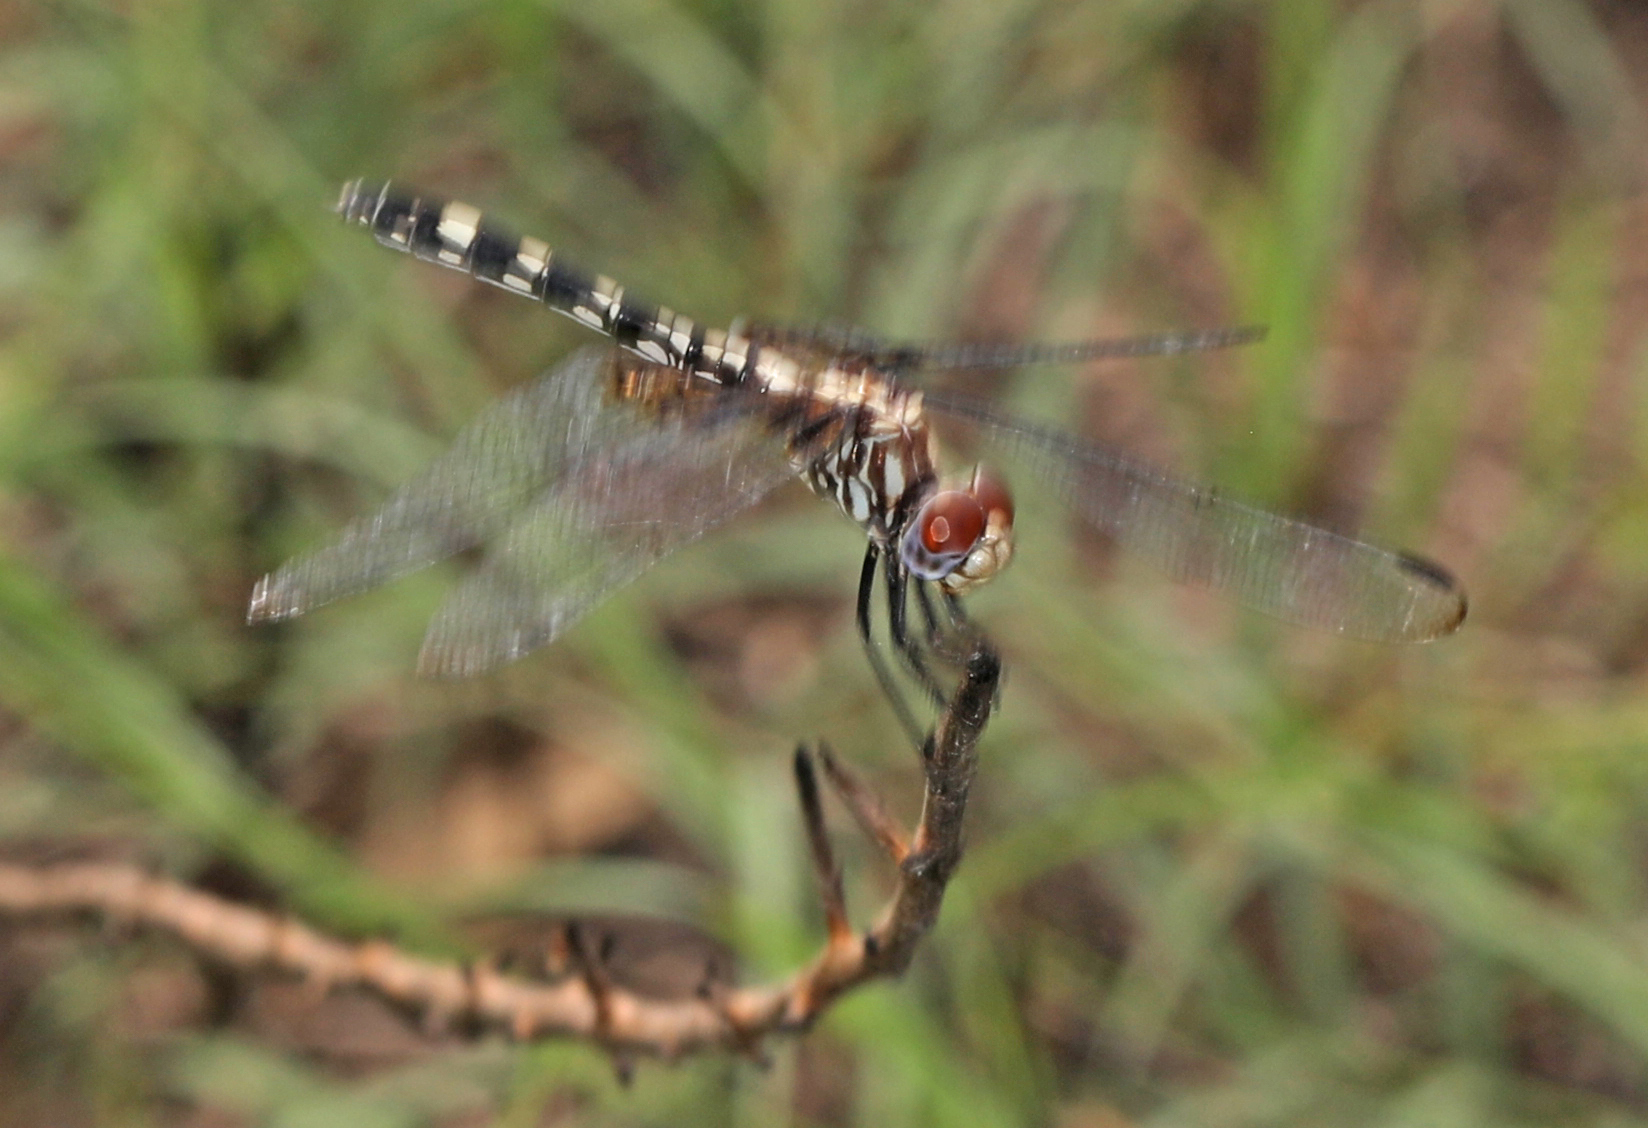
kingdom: Animalia
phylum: Arthropoda
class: Insecta
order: Odonata
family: Libellulidae
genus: Dythemis
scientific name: Dythemis fugax
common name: Checkered setwing
